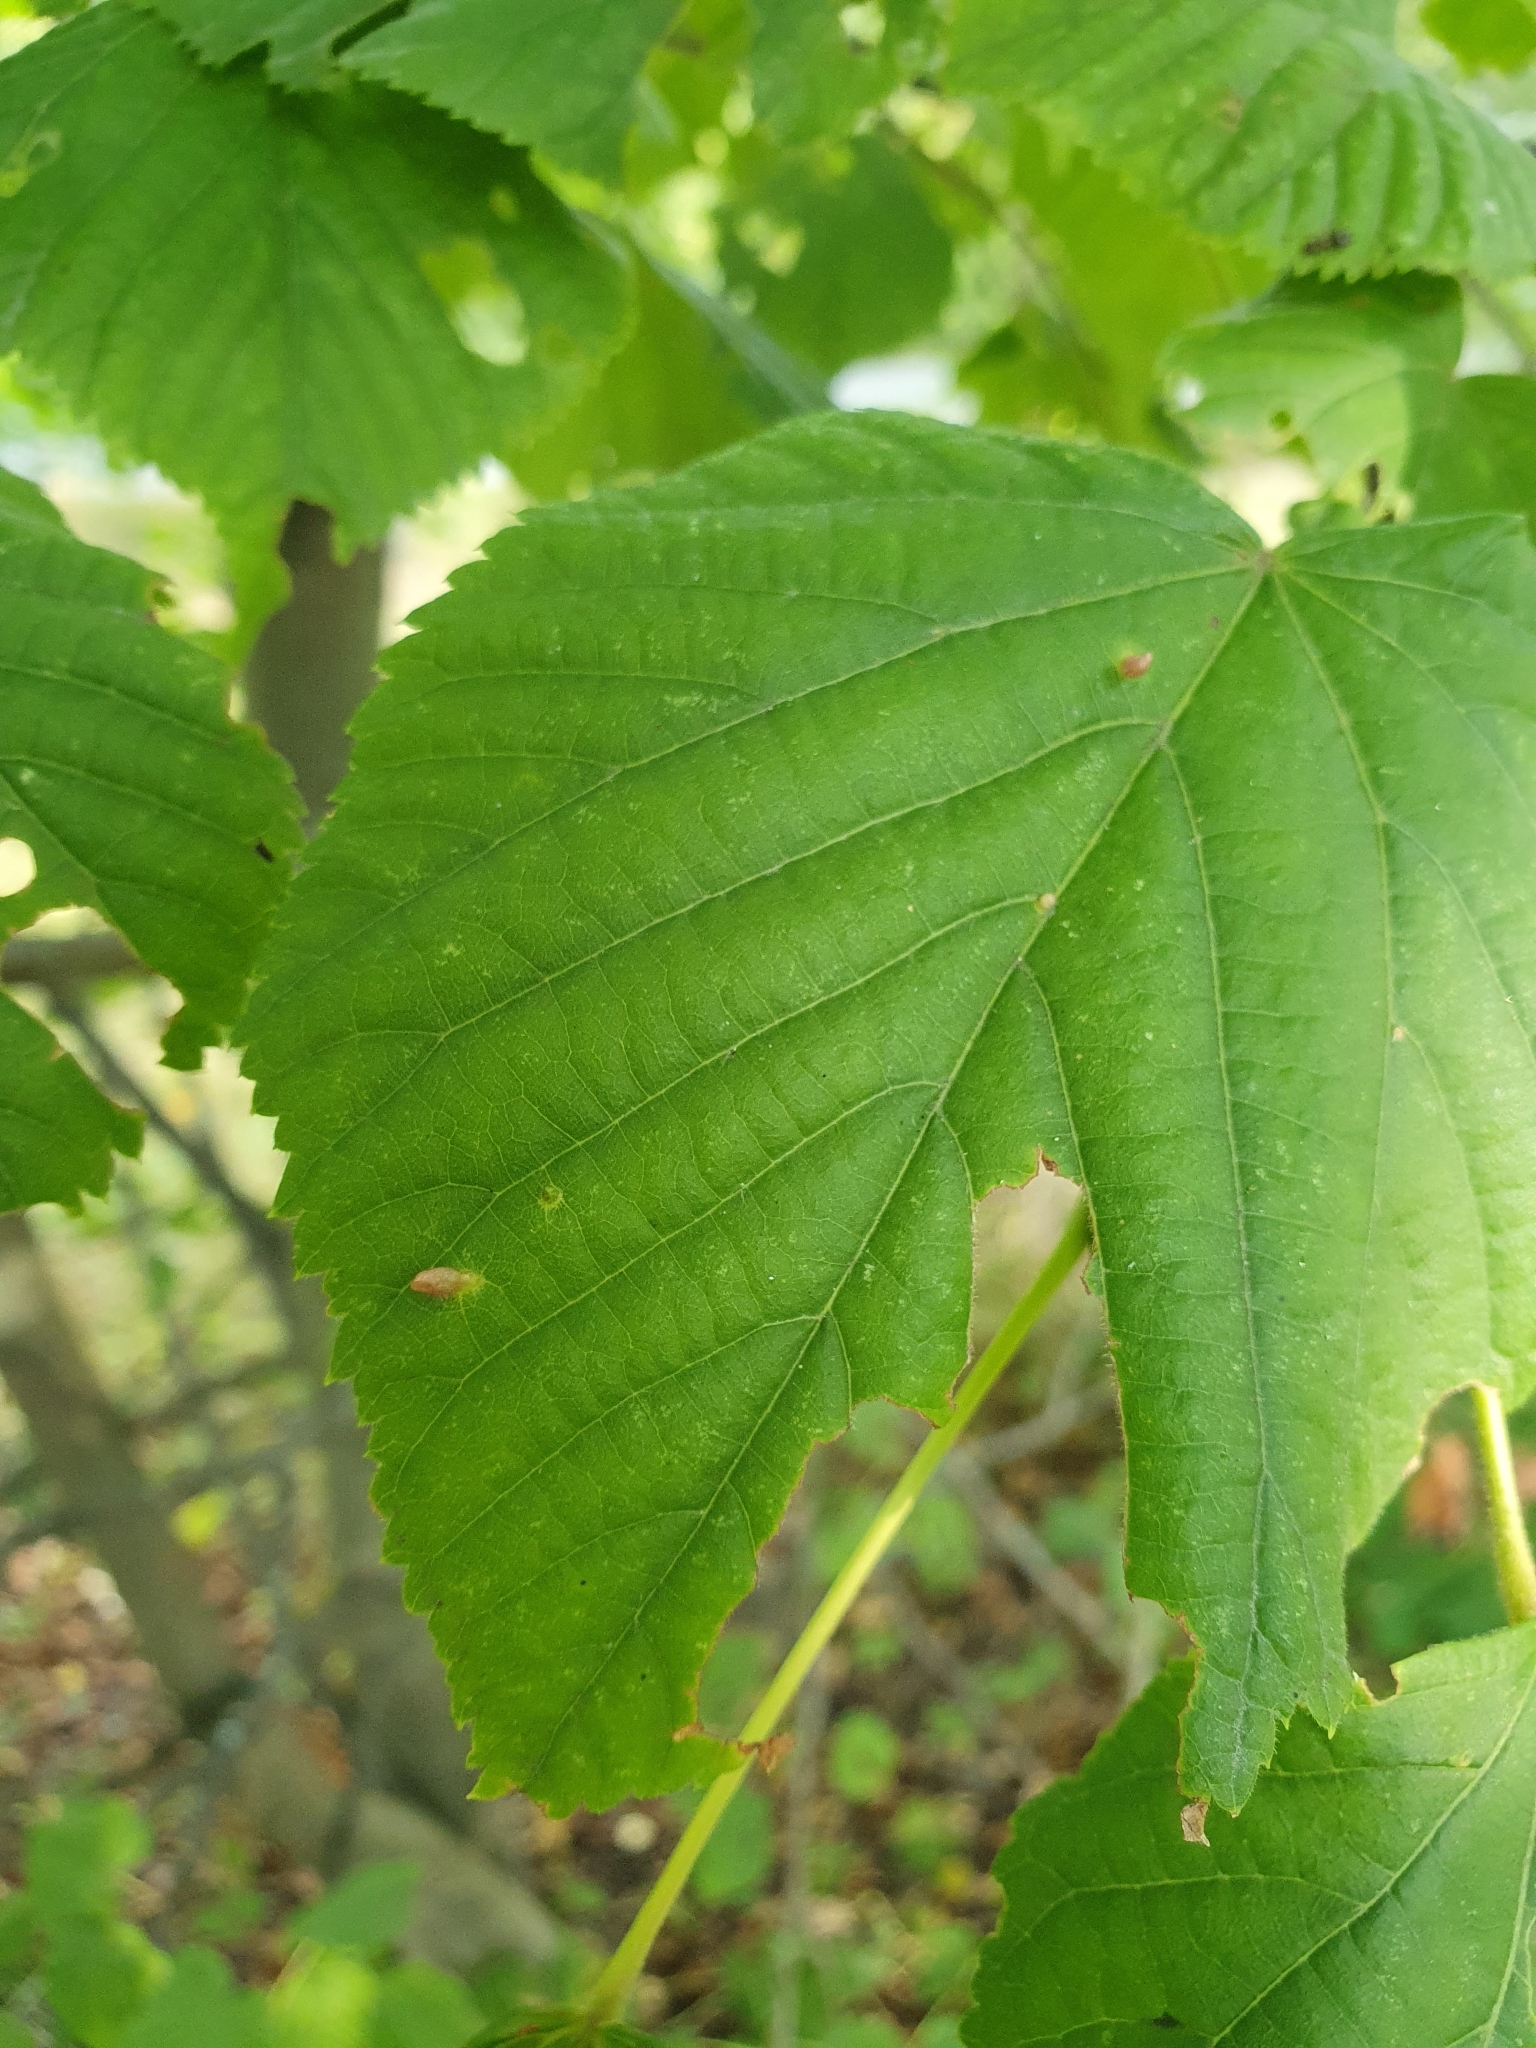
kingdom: Animalia
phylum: Arthropoda
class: Arachnida
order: Trombidiformes
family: Eriophyidae
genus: Eriophyes
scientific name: Eriophyes tiliae
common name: Red nail gall mite
